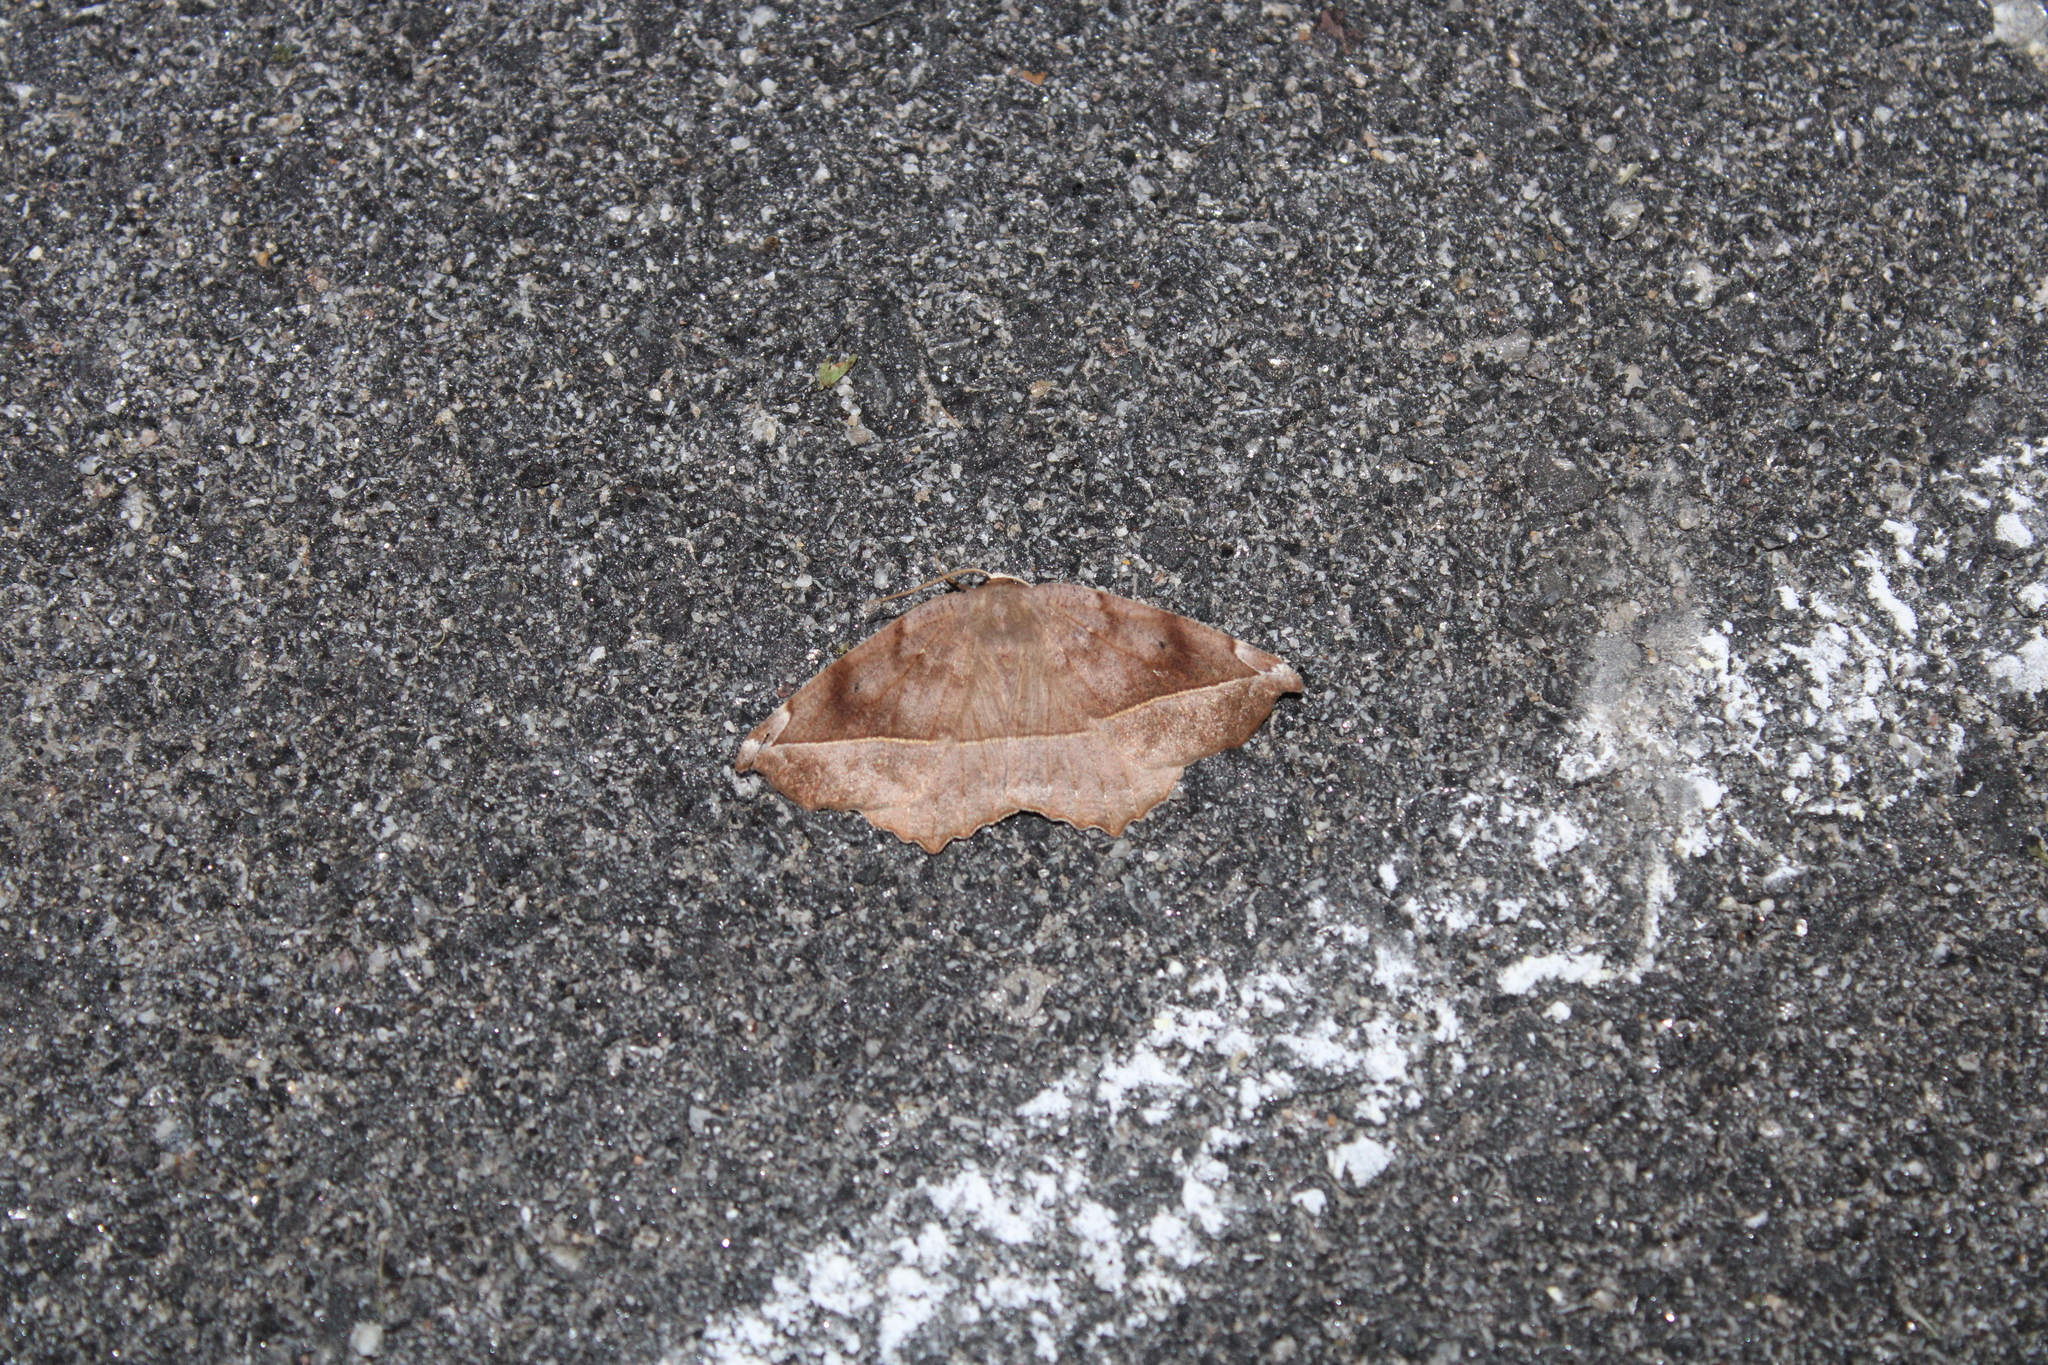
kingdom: Animalia
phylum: Arthropoda
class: Insecta
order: Lepidoptera
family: Geometridae
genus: Eutrapela
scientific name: Eutrapela clemataria
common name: Curved-toothed geometer
